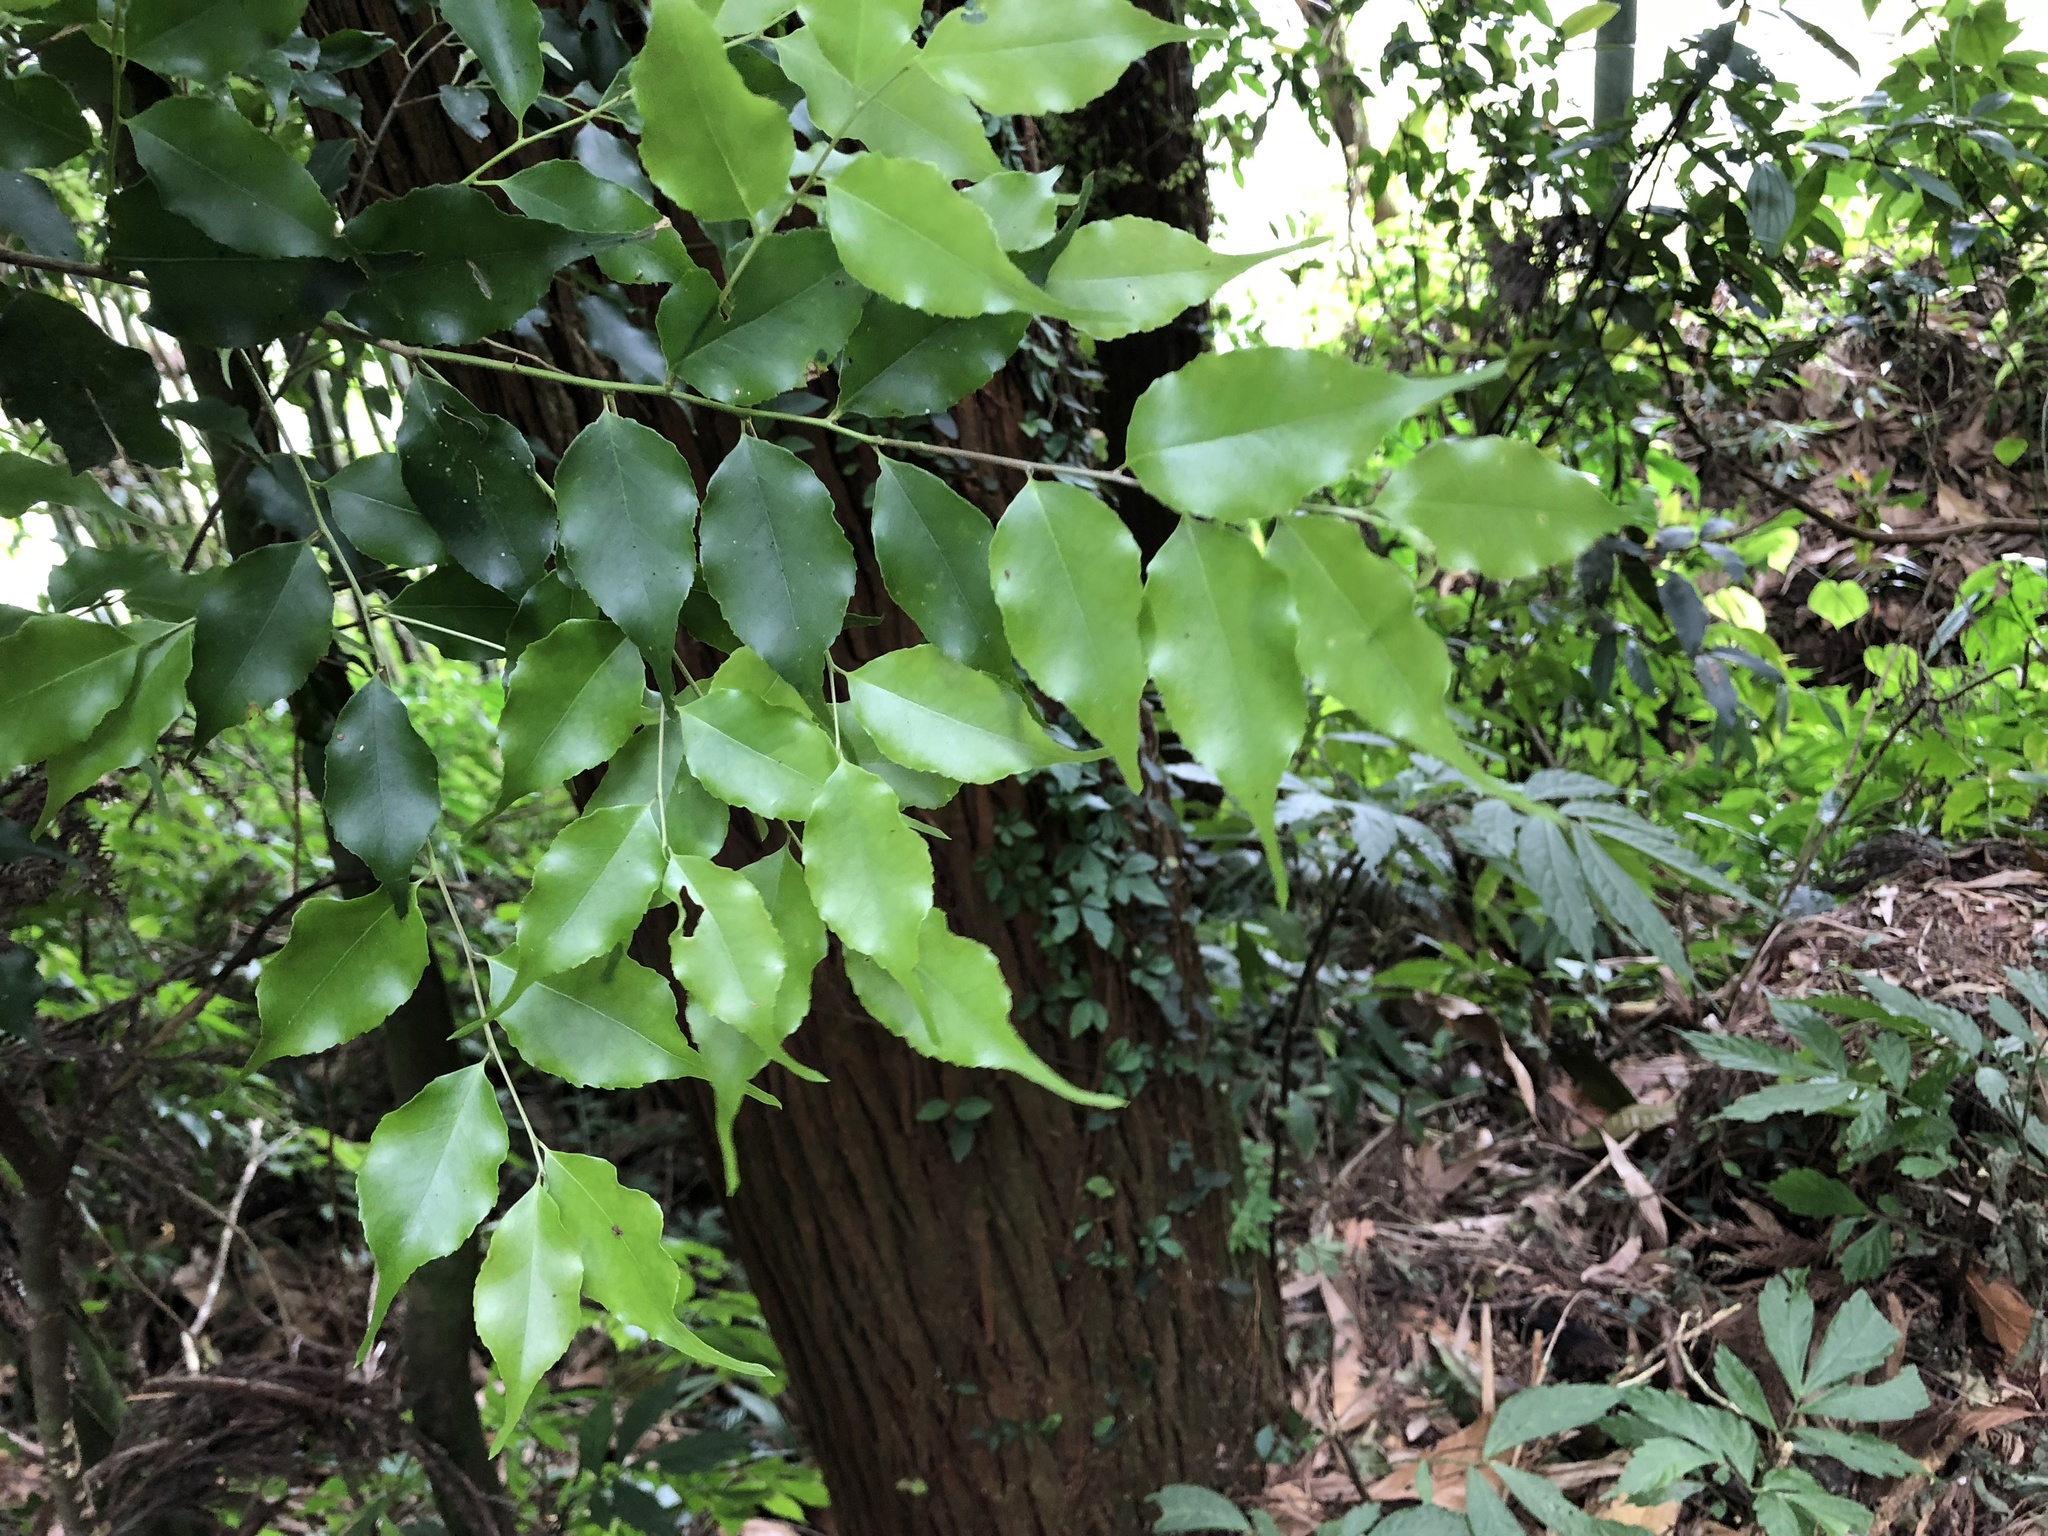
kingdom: Plantae
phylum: Tracheophyta
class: Magnoliopsida
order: Ericales
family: Symplocaceae
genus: Symplocos
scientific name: Symplocos sumuntia
